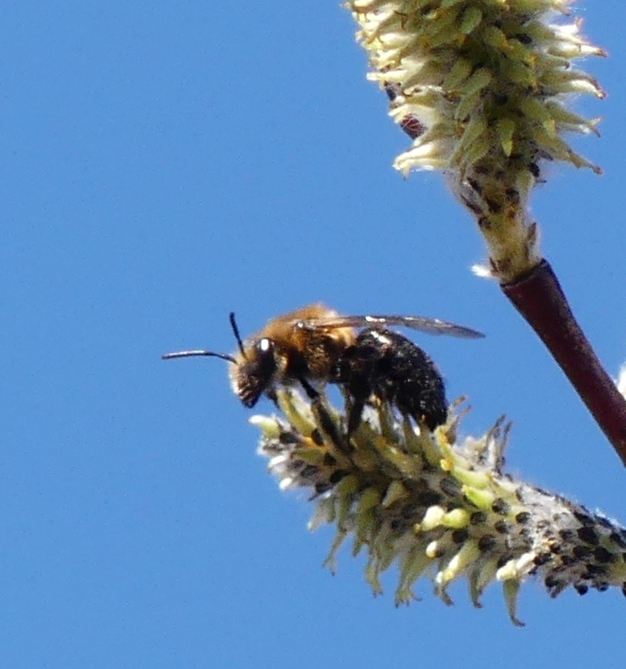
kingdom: Animalia
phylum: Arthropoda
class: Insecta
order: Hymenoptera
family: Andrenidae
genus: Andrena
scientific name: Andrena dunningi
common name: Dunning's miner
